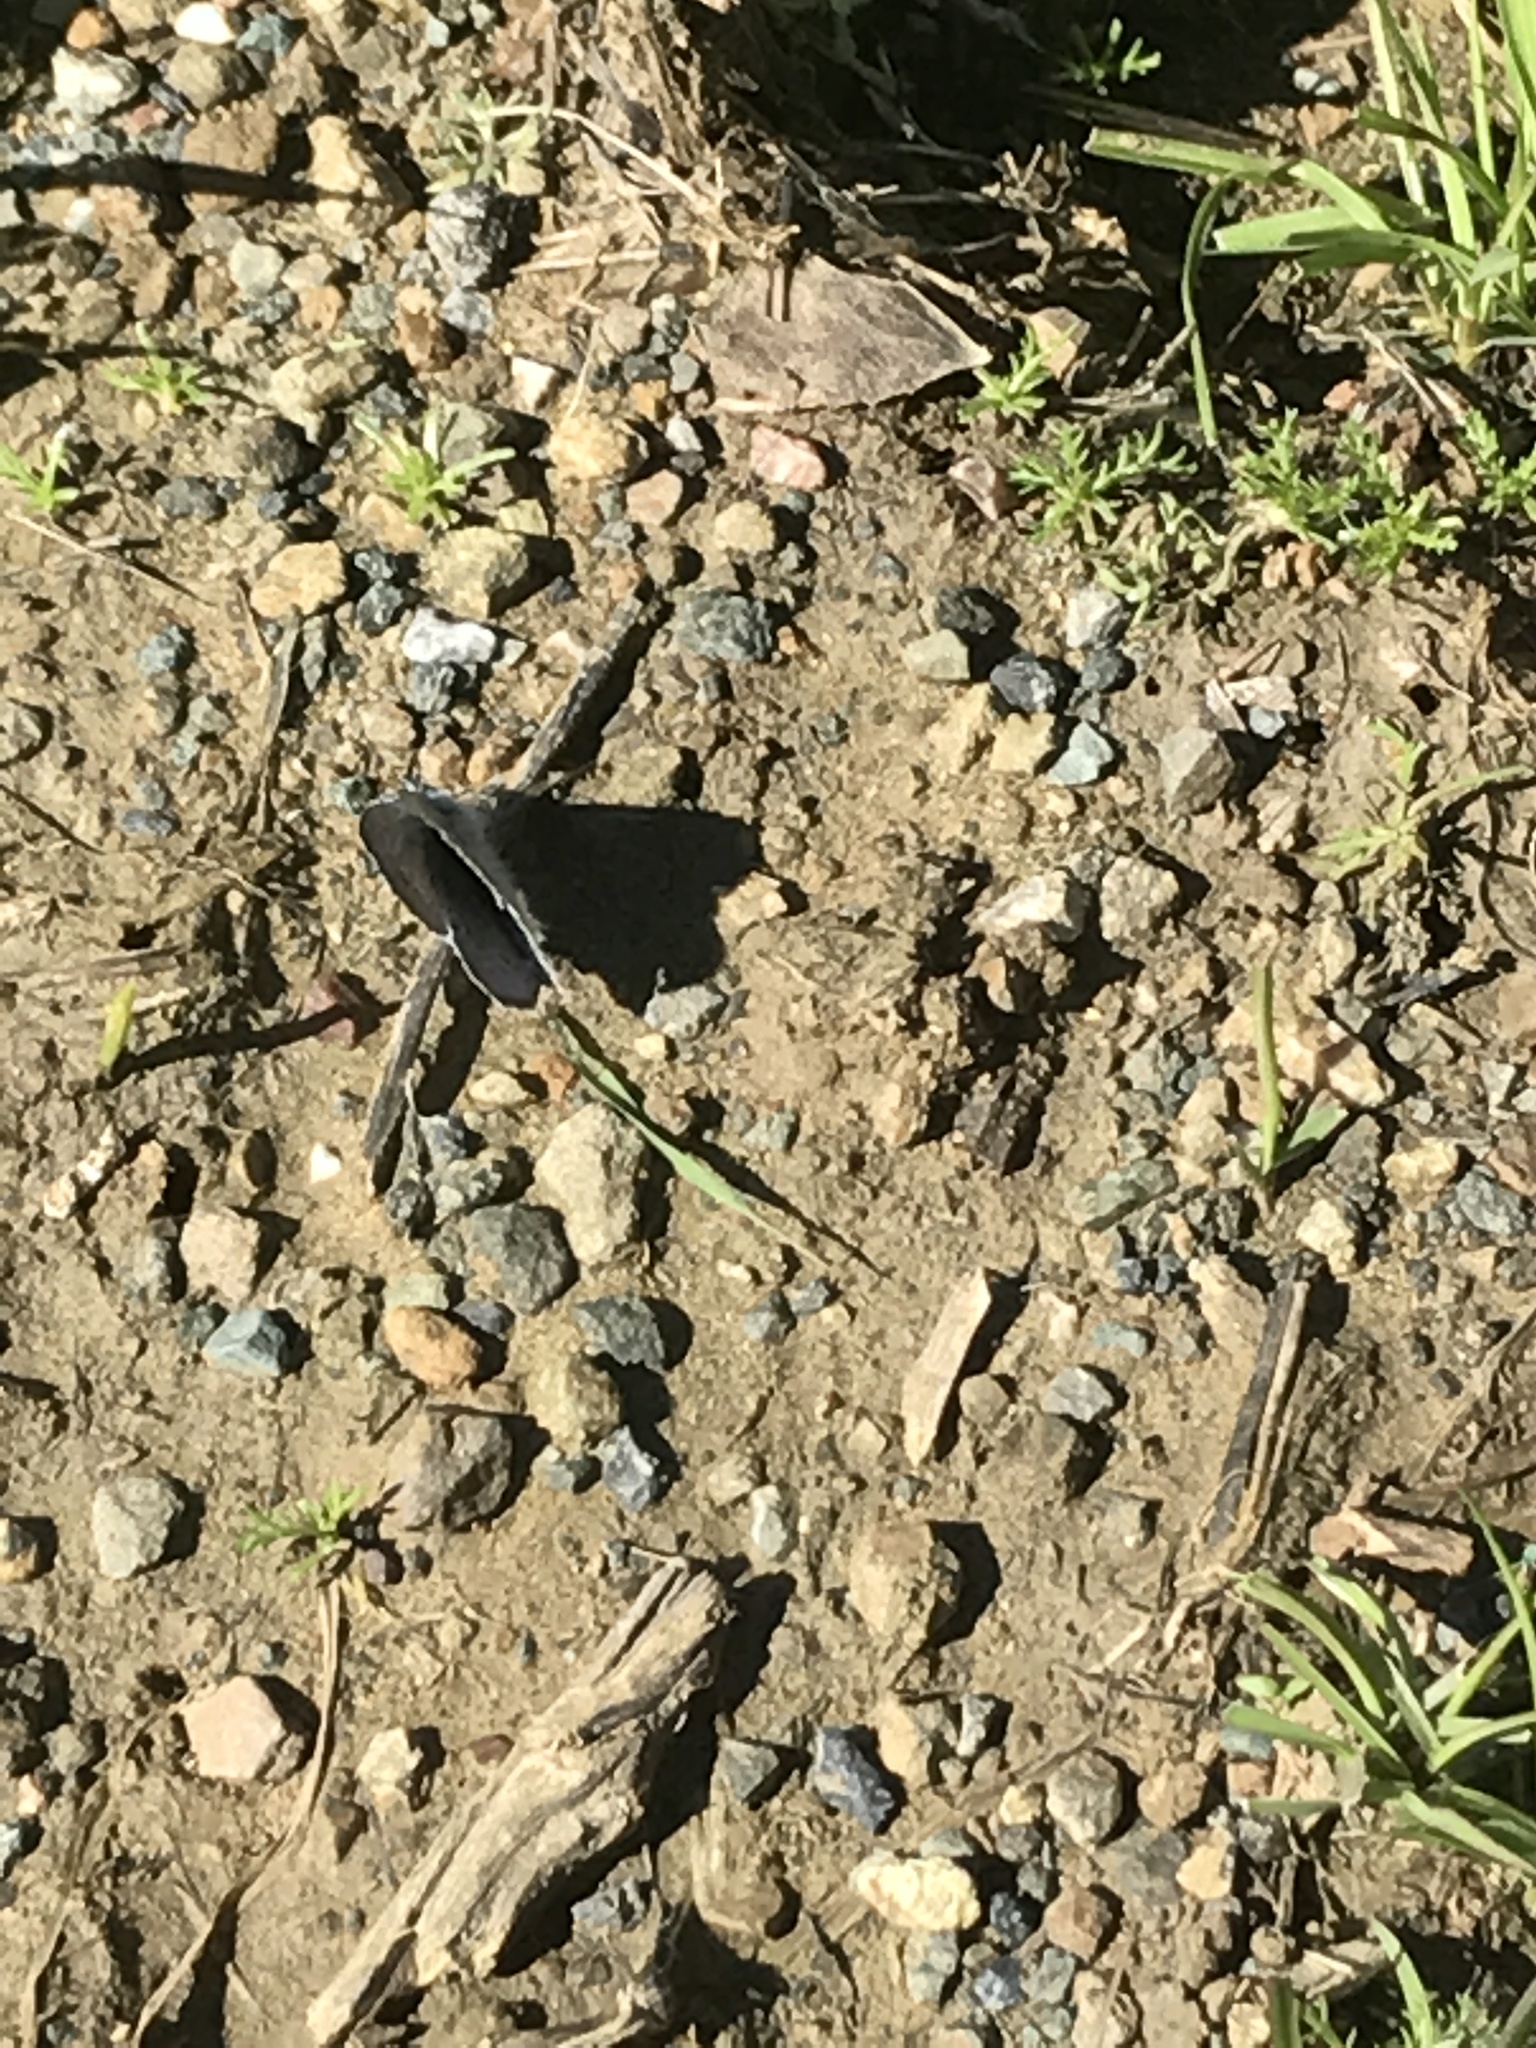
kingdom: Animalia
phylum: Arthropoda
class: Insecta
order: Lepidoptera
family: Lycaenidae
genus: Celastrina
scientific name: Celastrina ladon
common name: Spring azure
